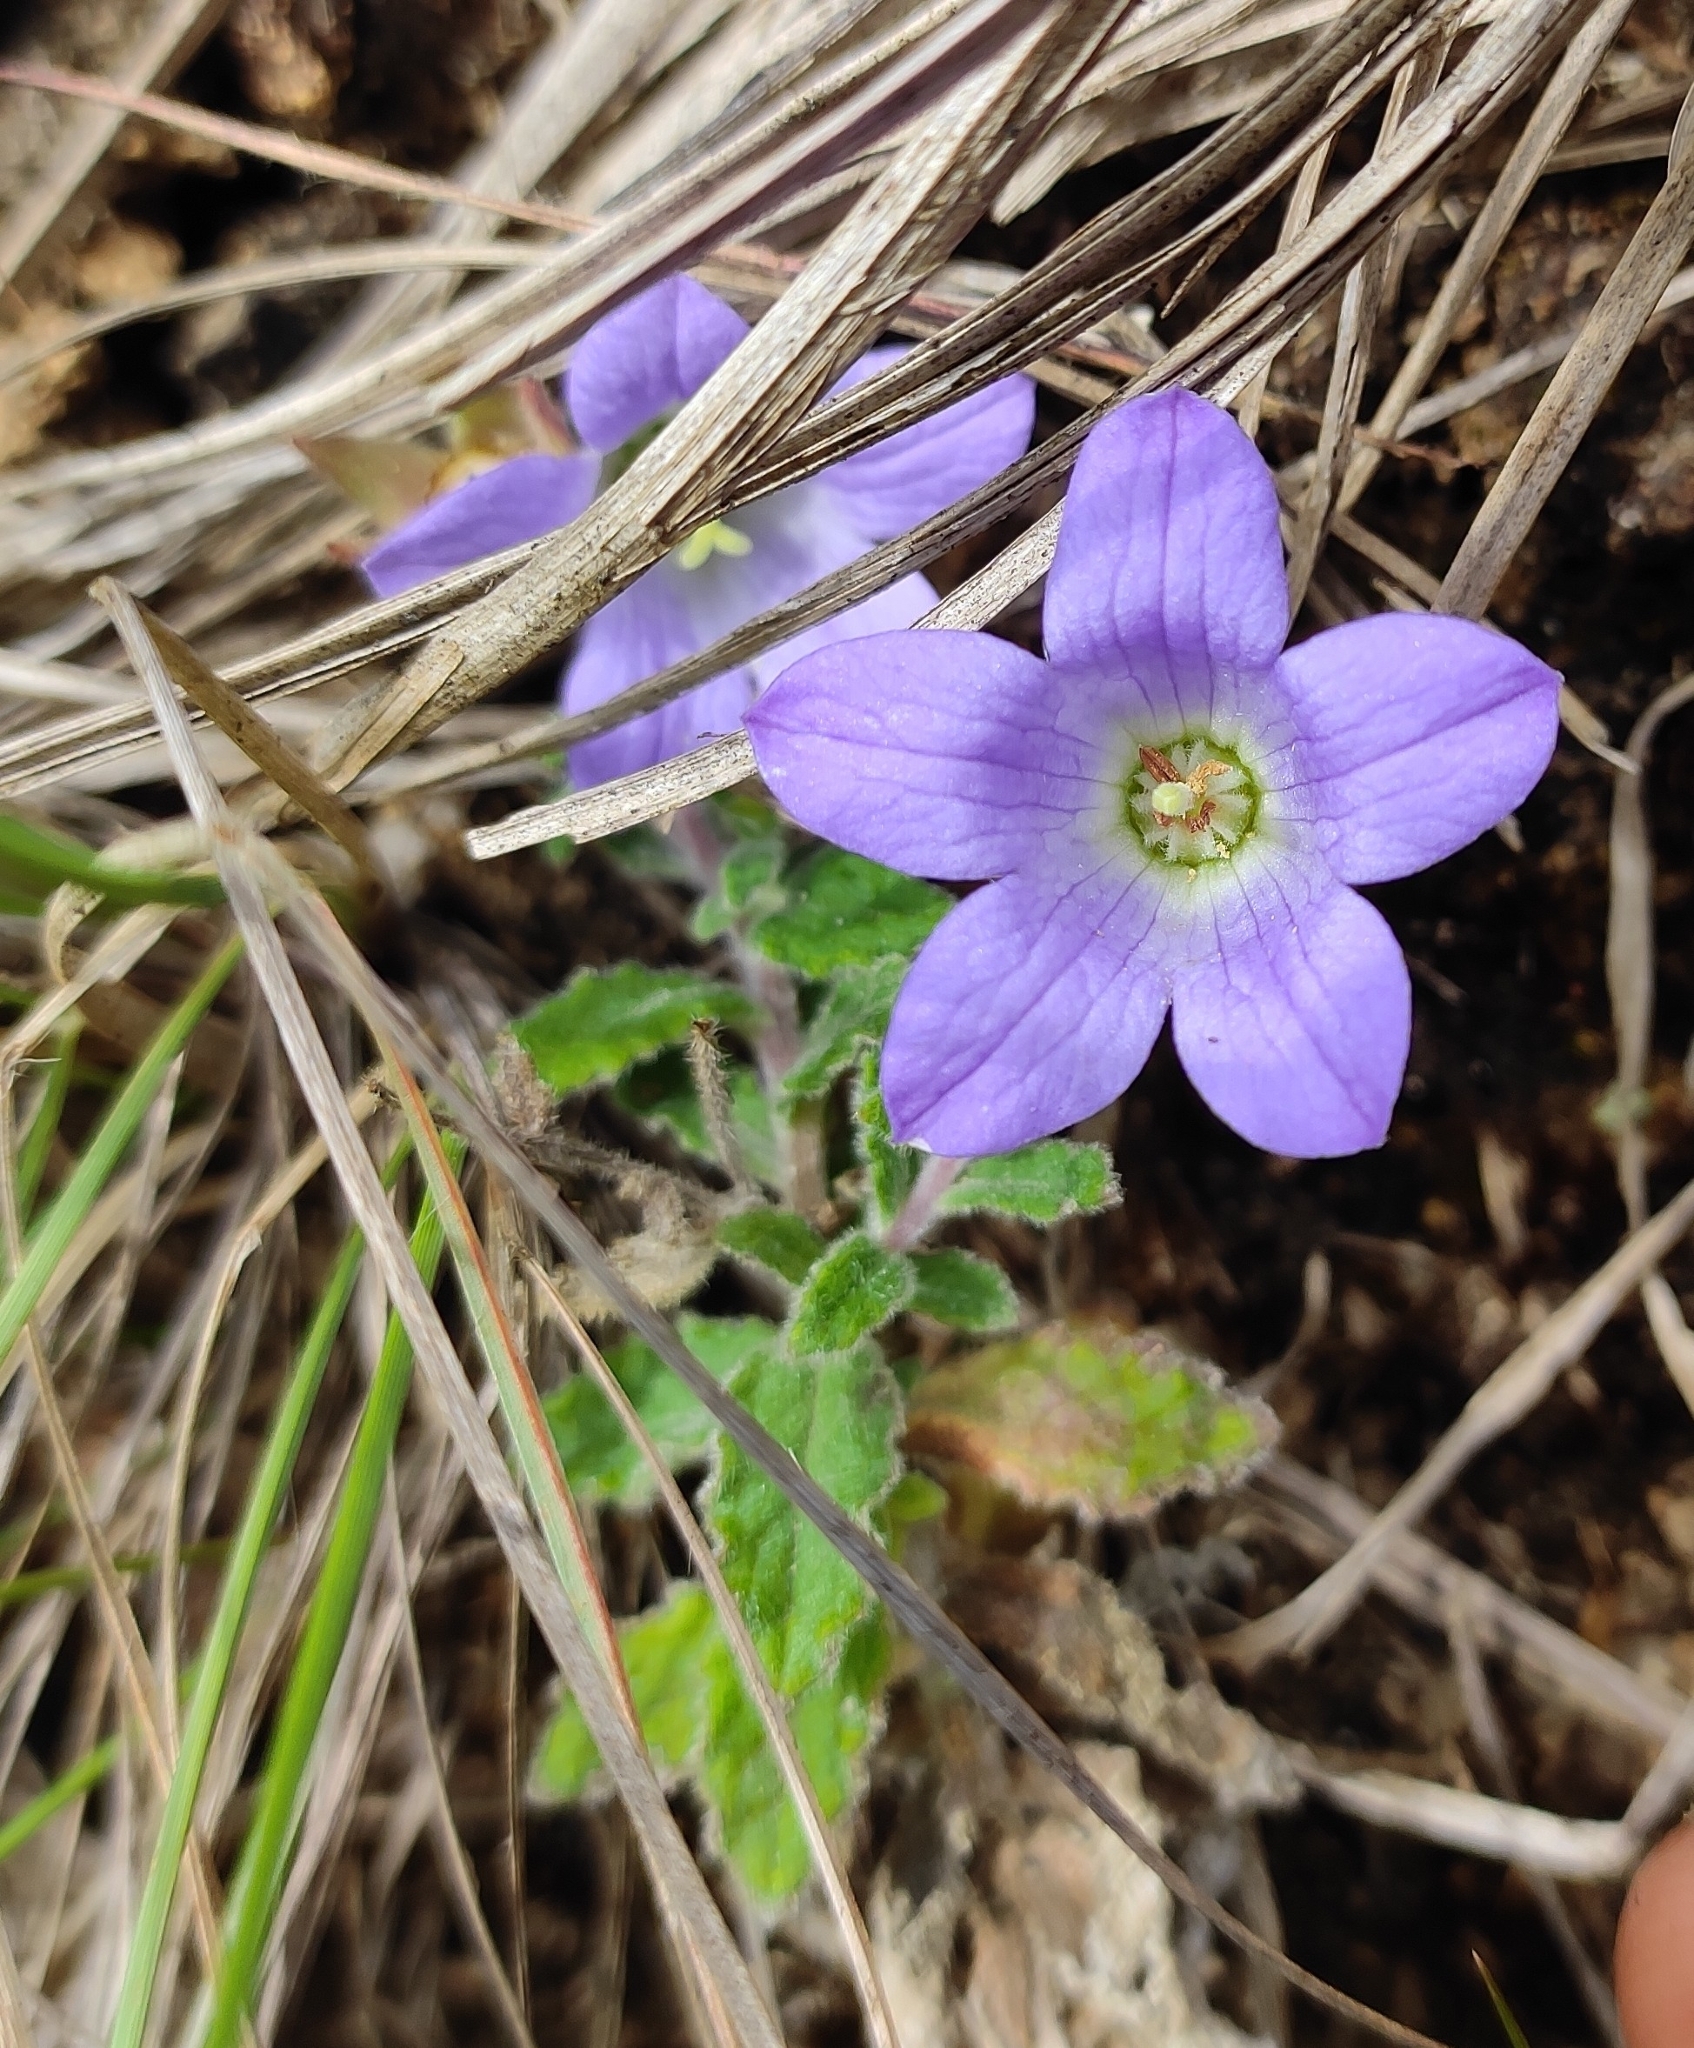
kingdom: Plantae
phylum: Tracheophyta
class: Magnoliopsida
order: Asterales
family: Campanulaceae
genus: Campanula
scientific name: Campanula alphonsii
